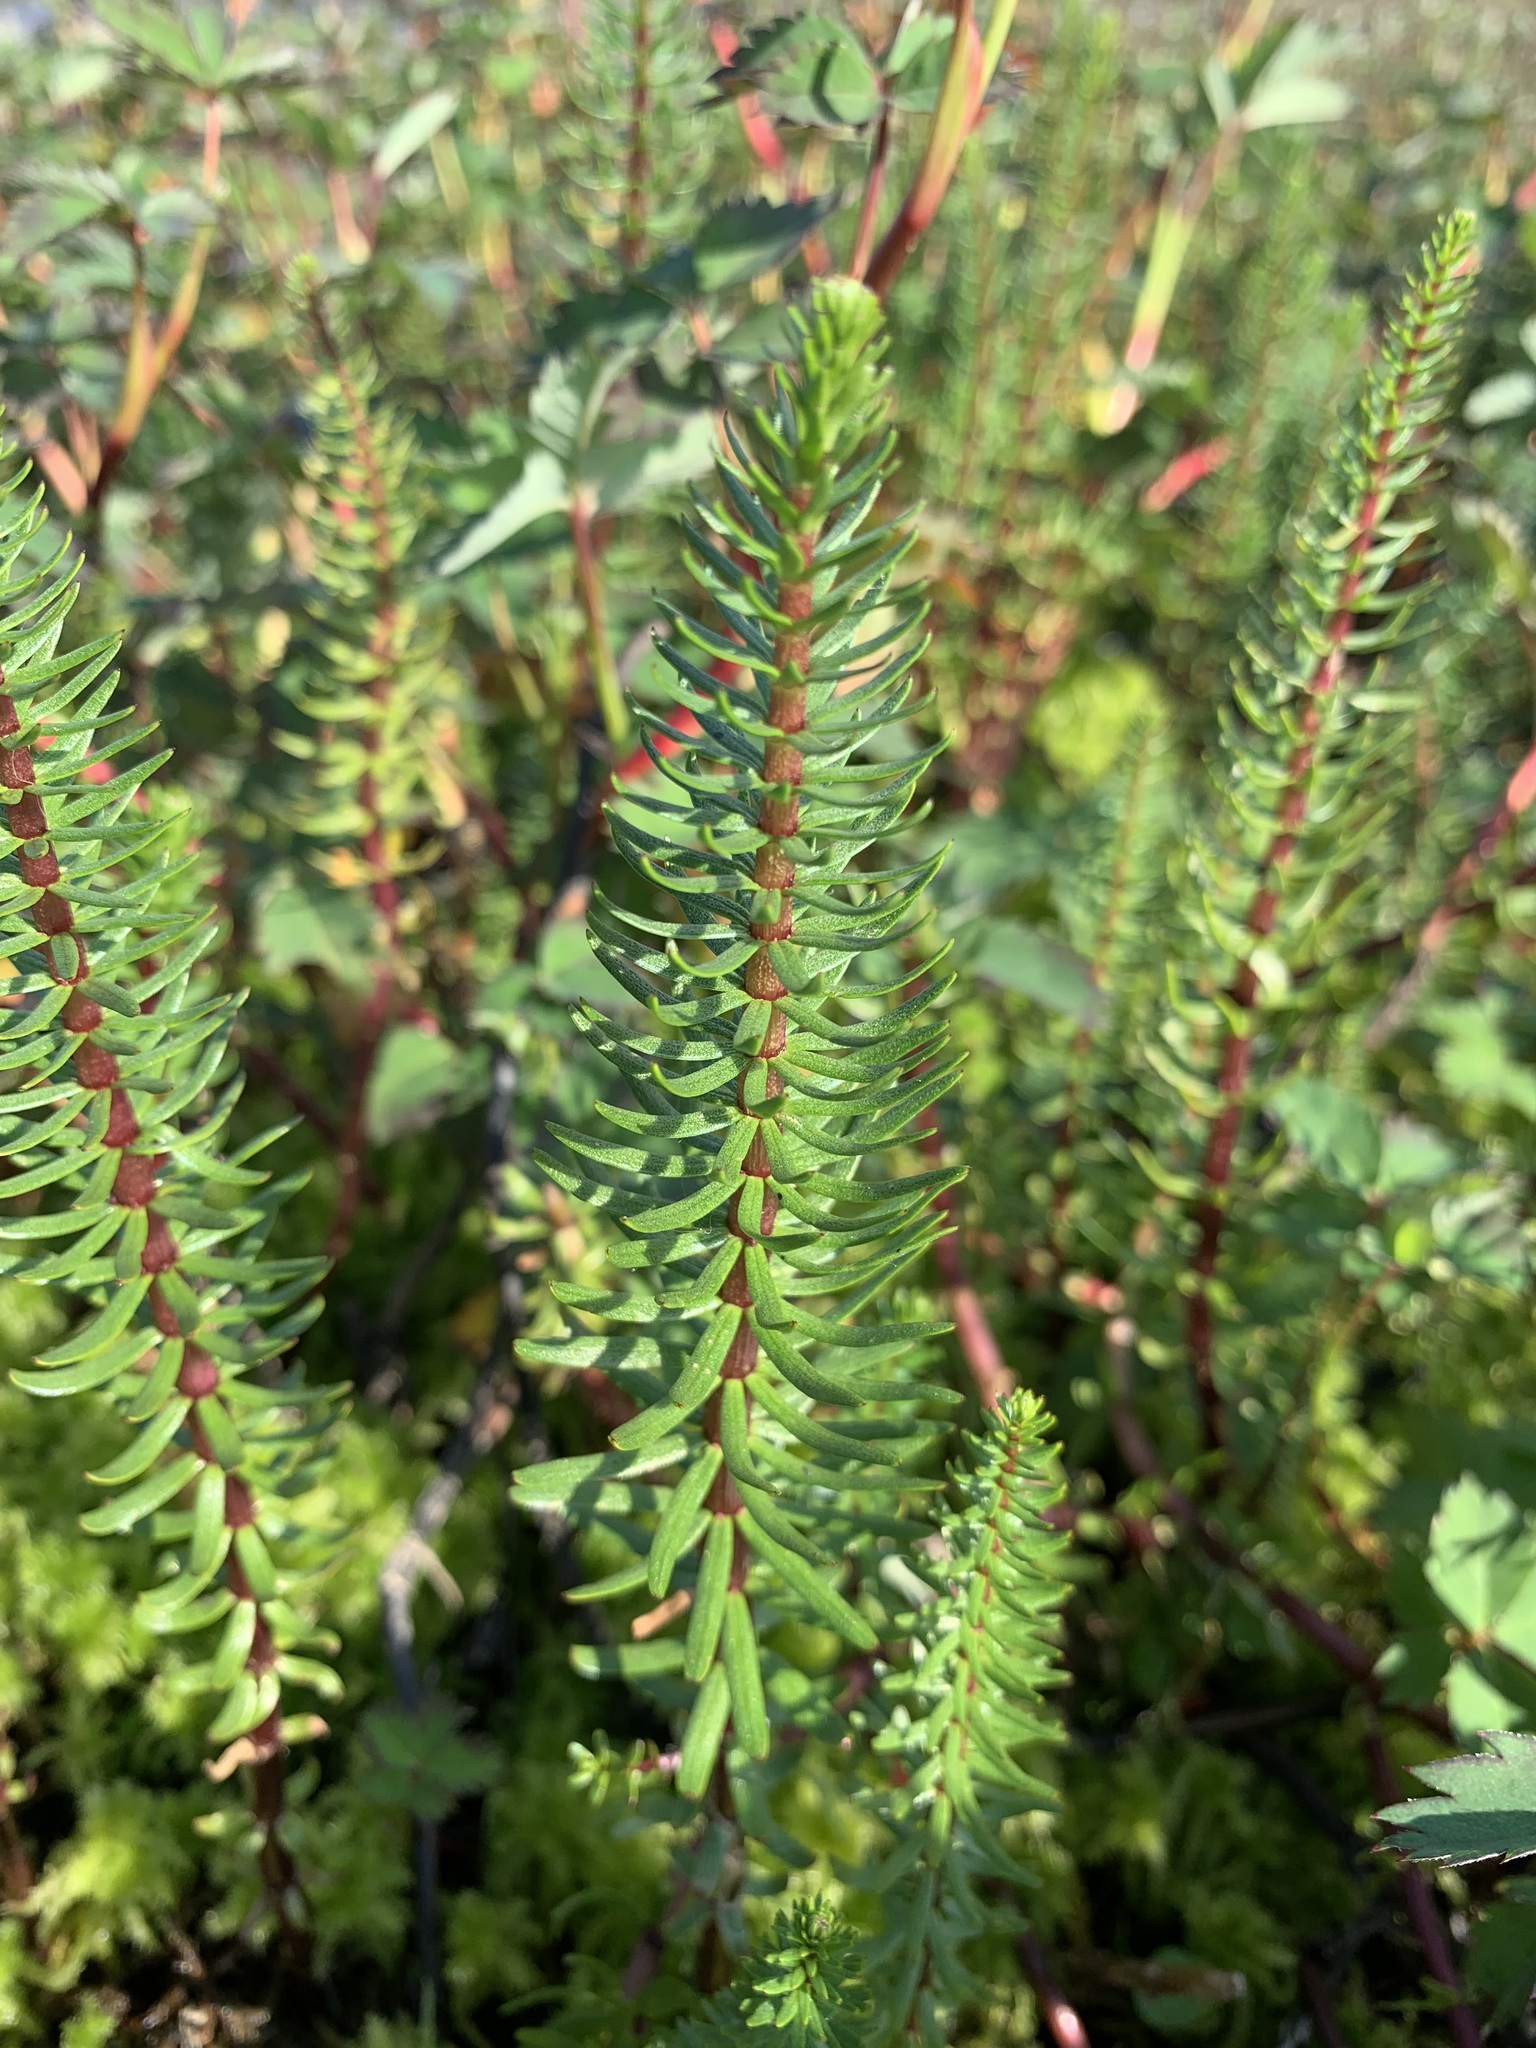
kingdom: Plantae
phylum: Tracheophyta
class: Magnoliopsida
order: Lamiales
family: Plantaginaceae
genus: Hippuris
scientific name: Hippuris vulgaris
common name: Mare's-tail
